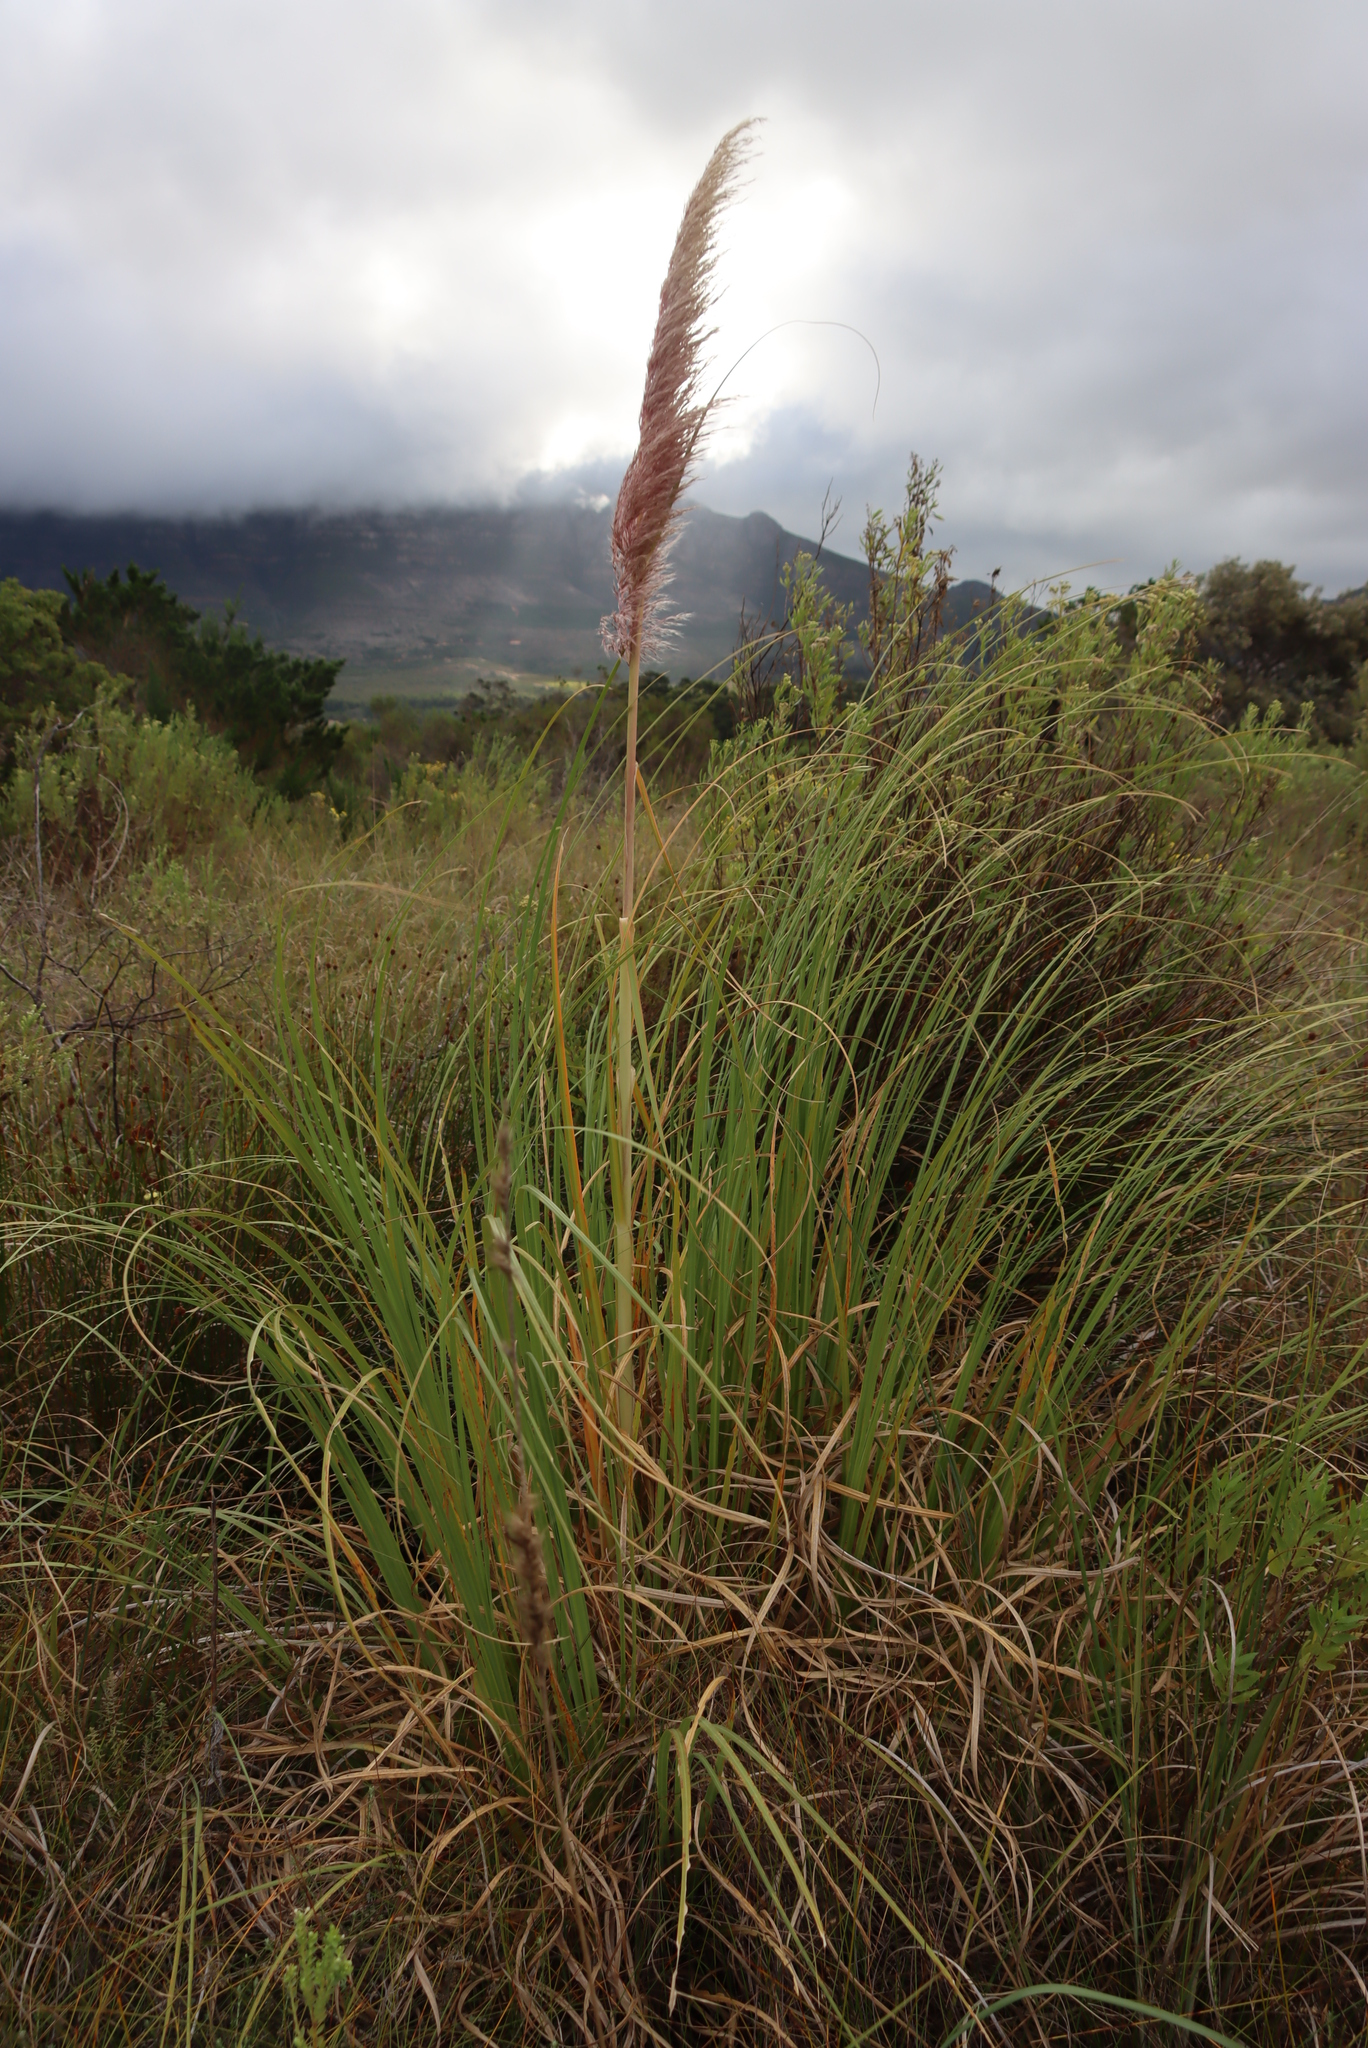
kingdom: Plantae
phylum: Tracheophyta
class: Liliopsida
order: Poales
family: Poaceae
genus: Cortaderia
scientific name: Cortaderia selloana
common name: Uruguayan pampas grass
